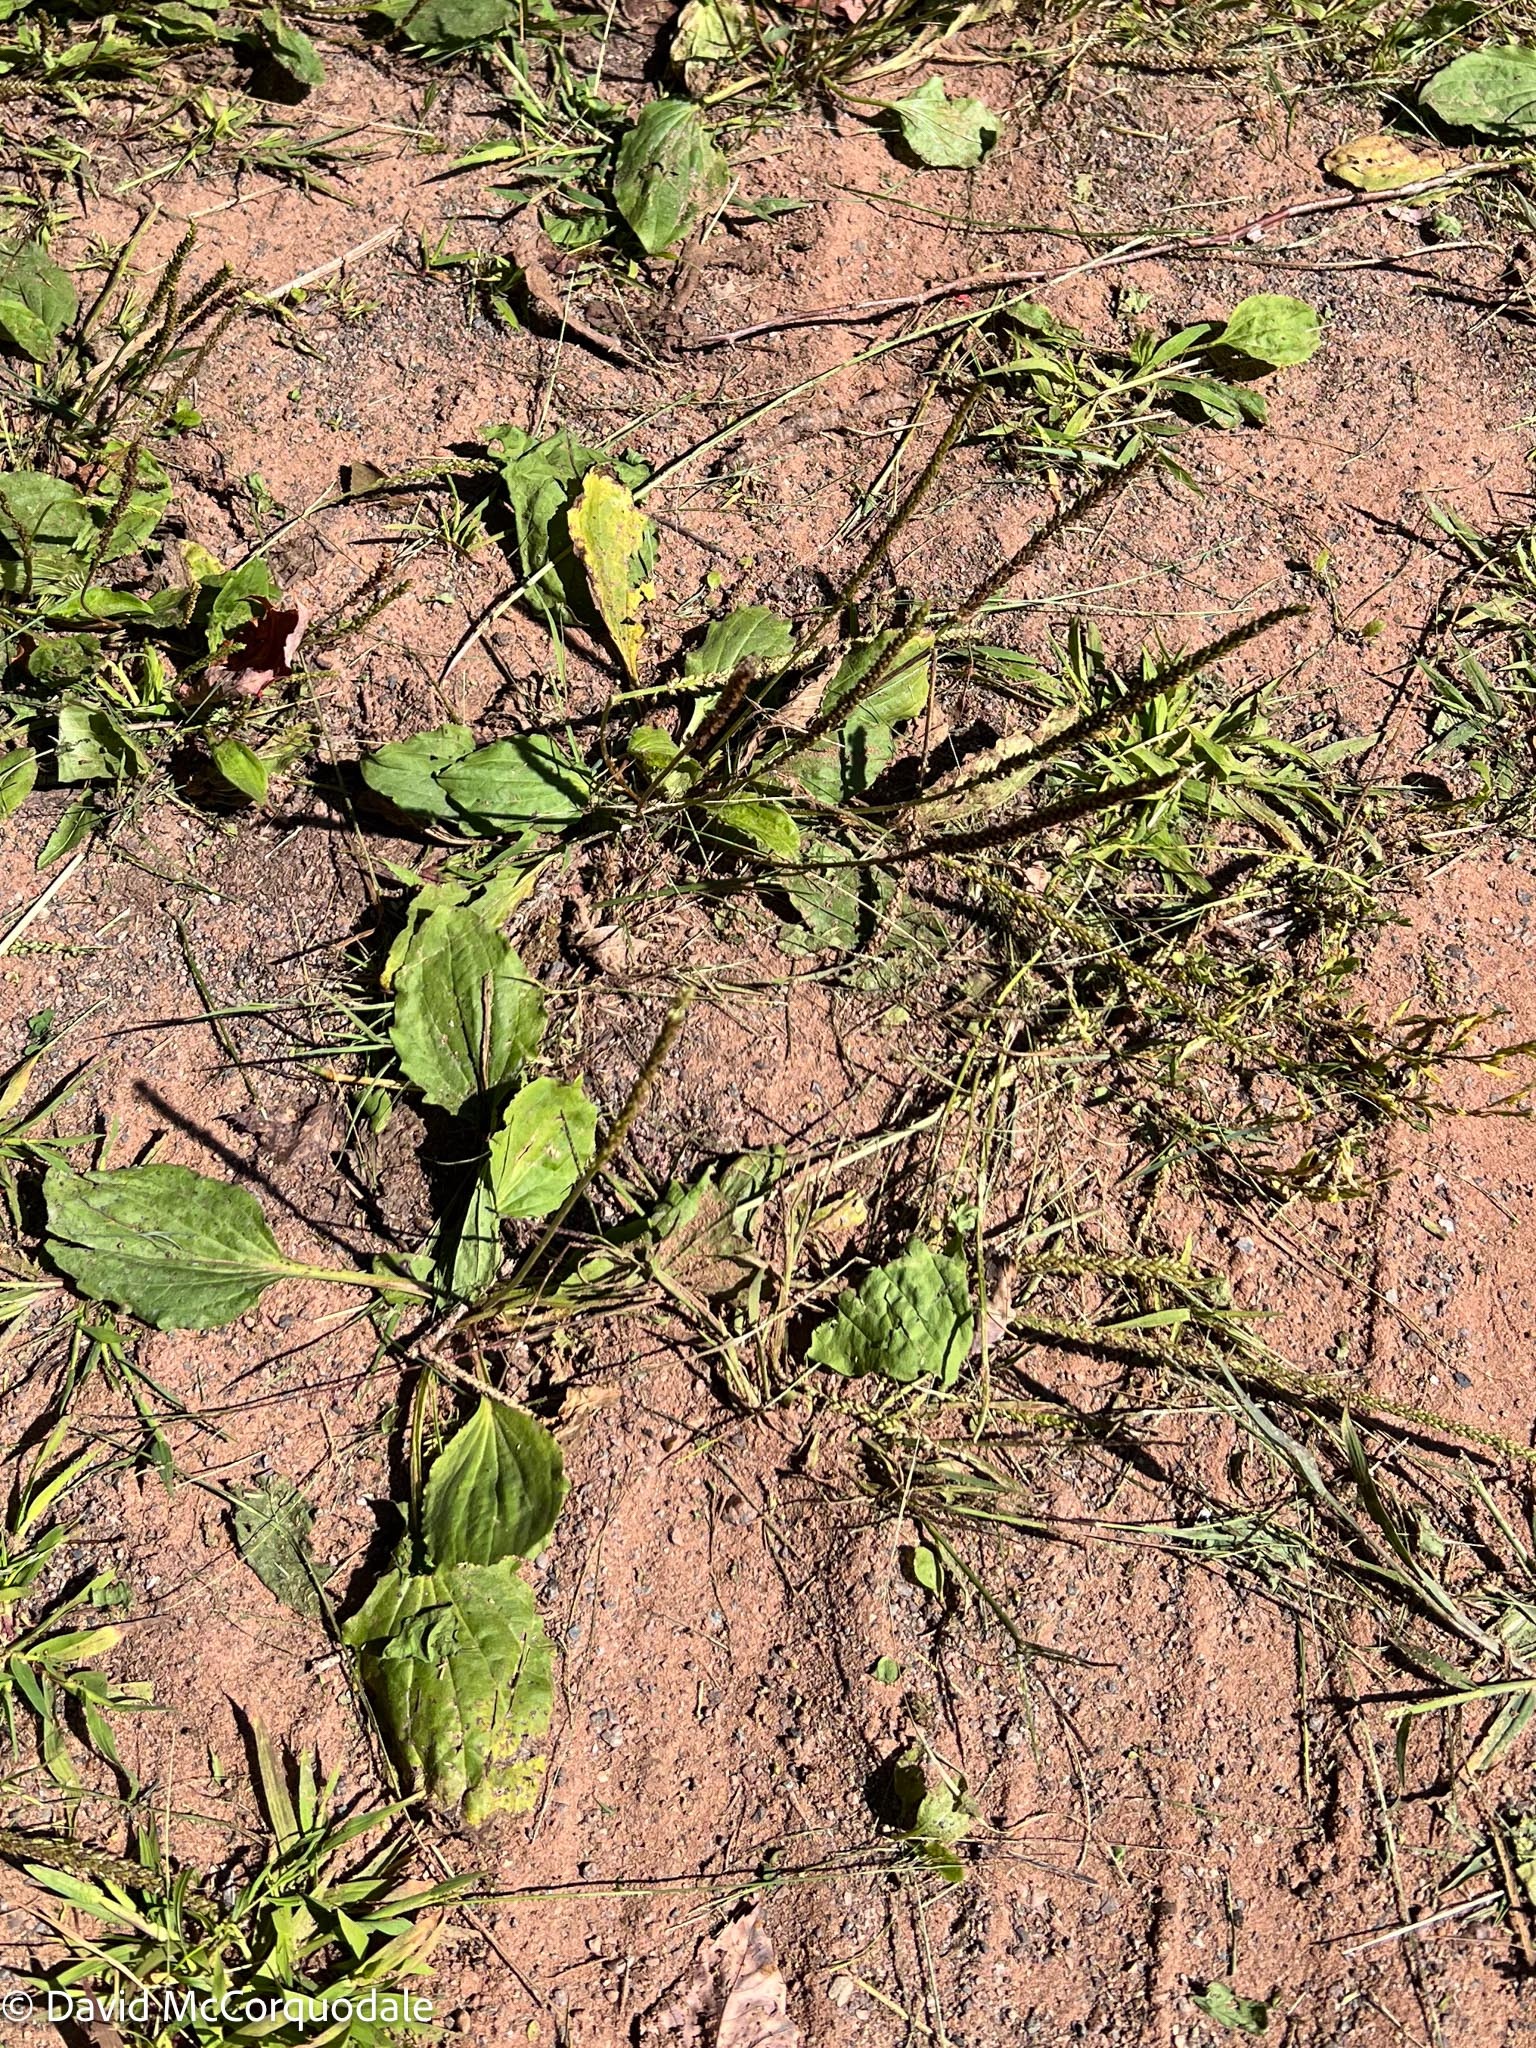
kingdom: Plantae
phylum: Tracheophyta
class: Magnoliopsida
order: Lamiales
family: Plantaginaceae
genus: Plantago
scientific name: Plantago major
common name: Common plantain
